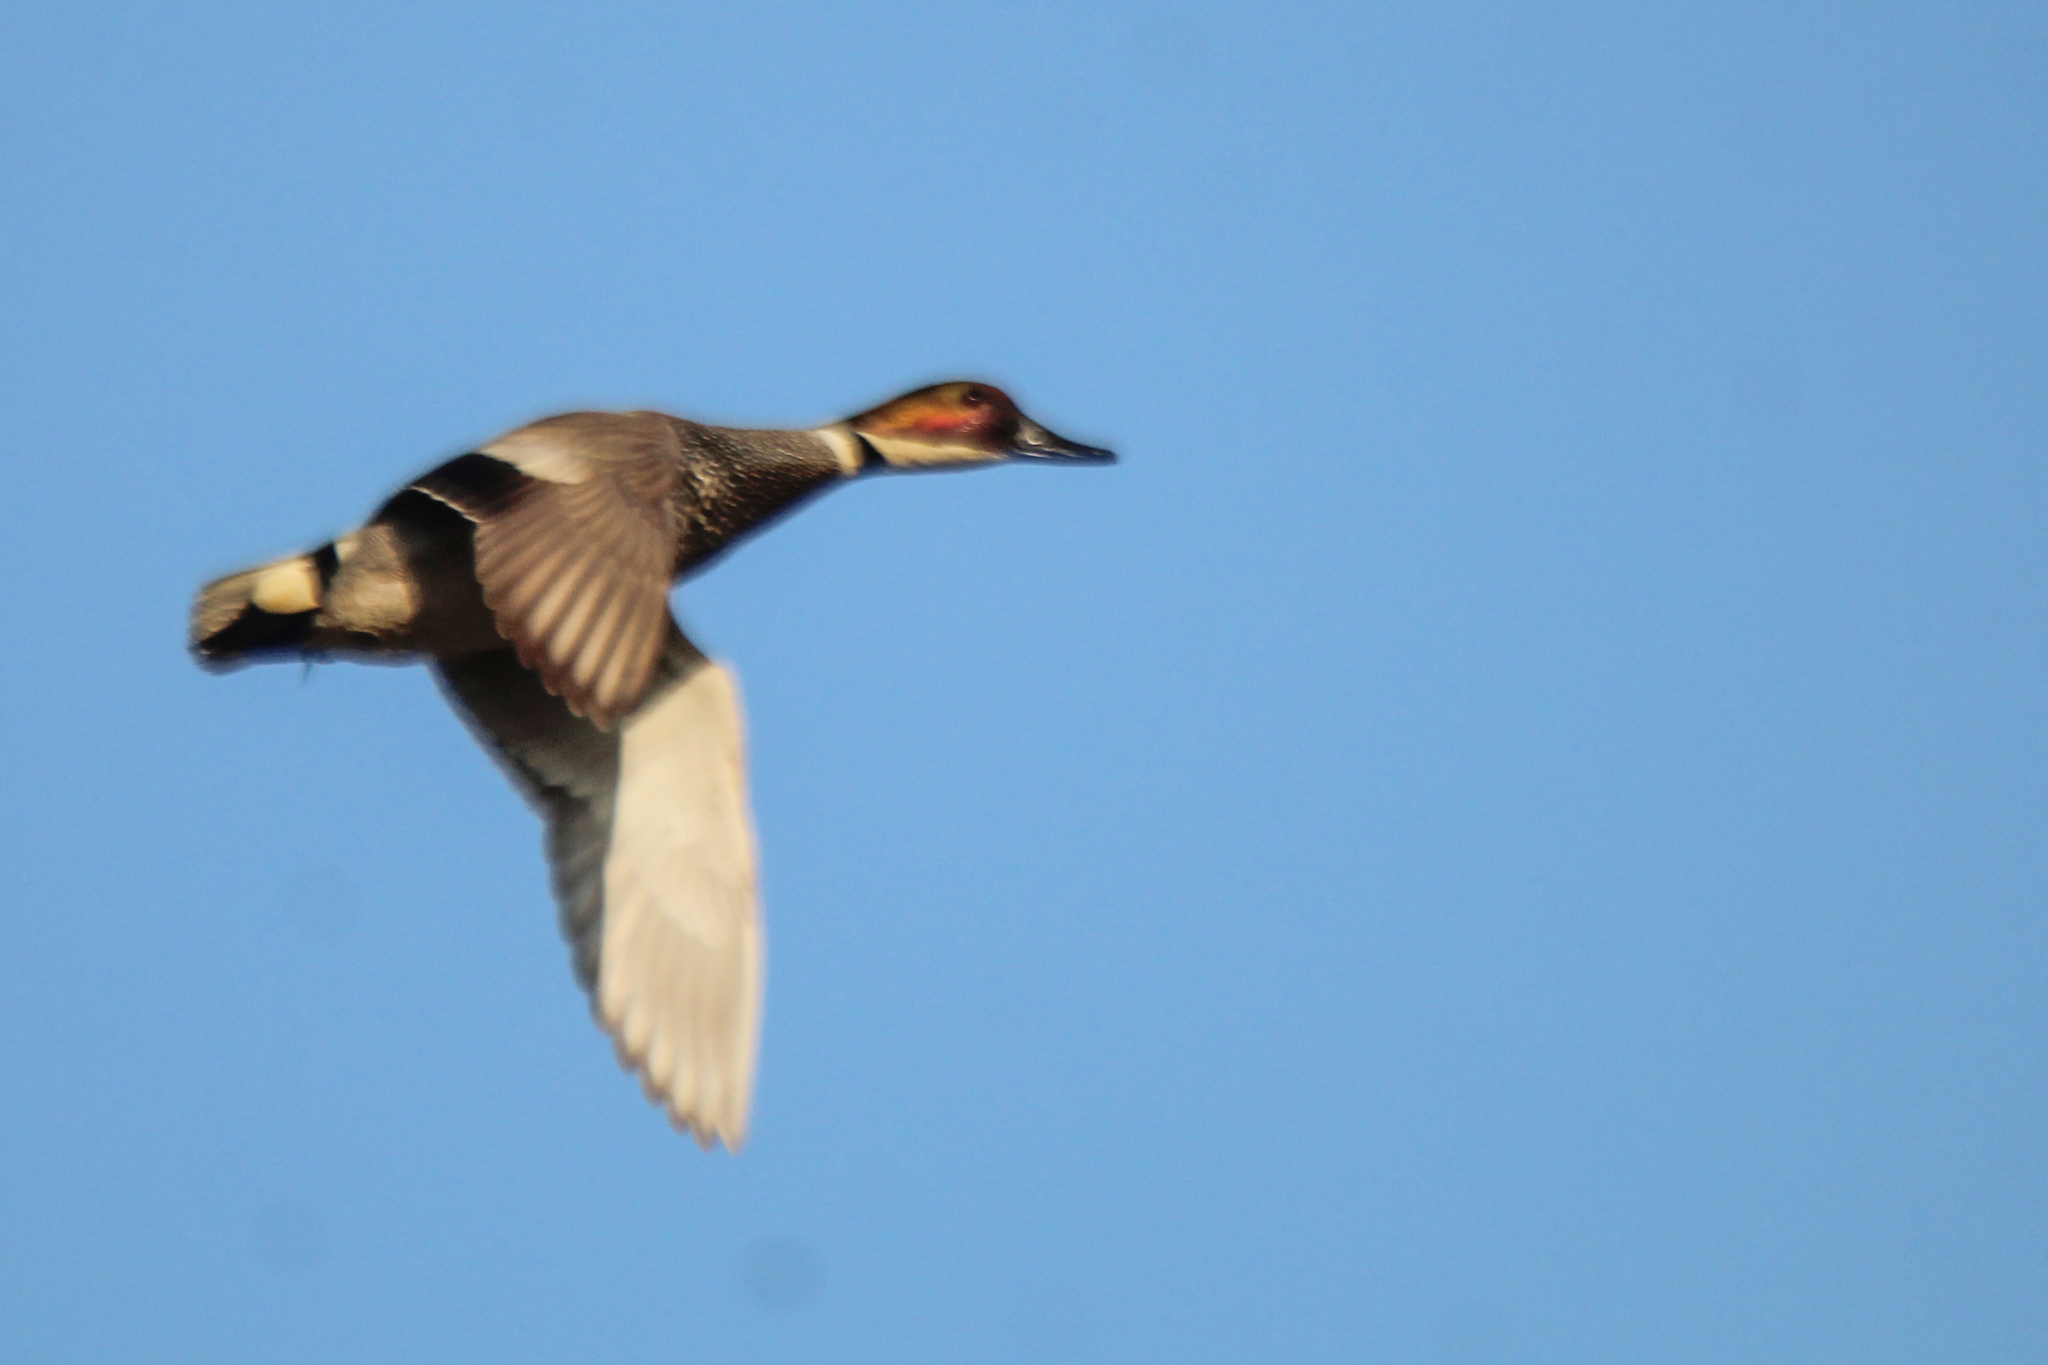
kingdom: Animalia
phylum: Chordata
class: Aves
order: Anseriformes
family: Anatidae
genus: Mareca
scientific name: Mareca falcata
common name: Falcated duck
